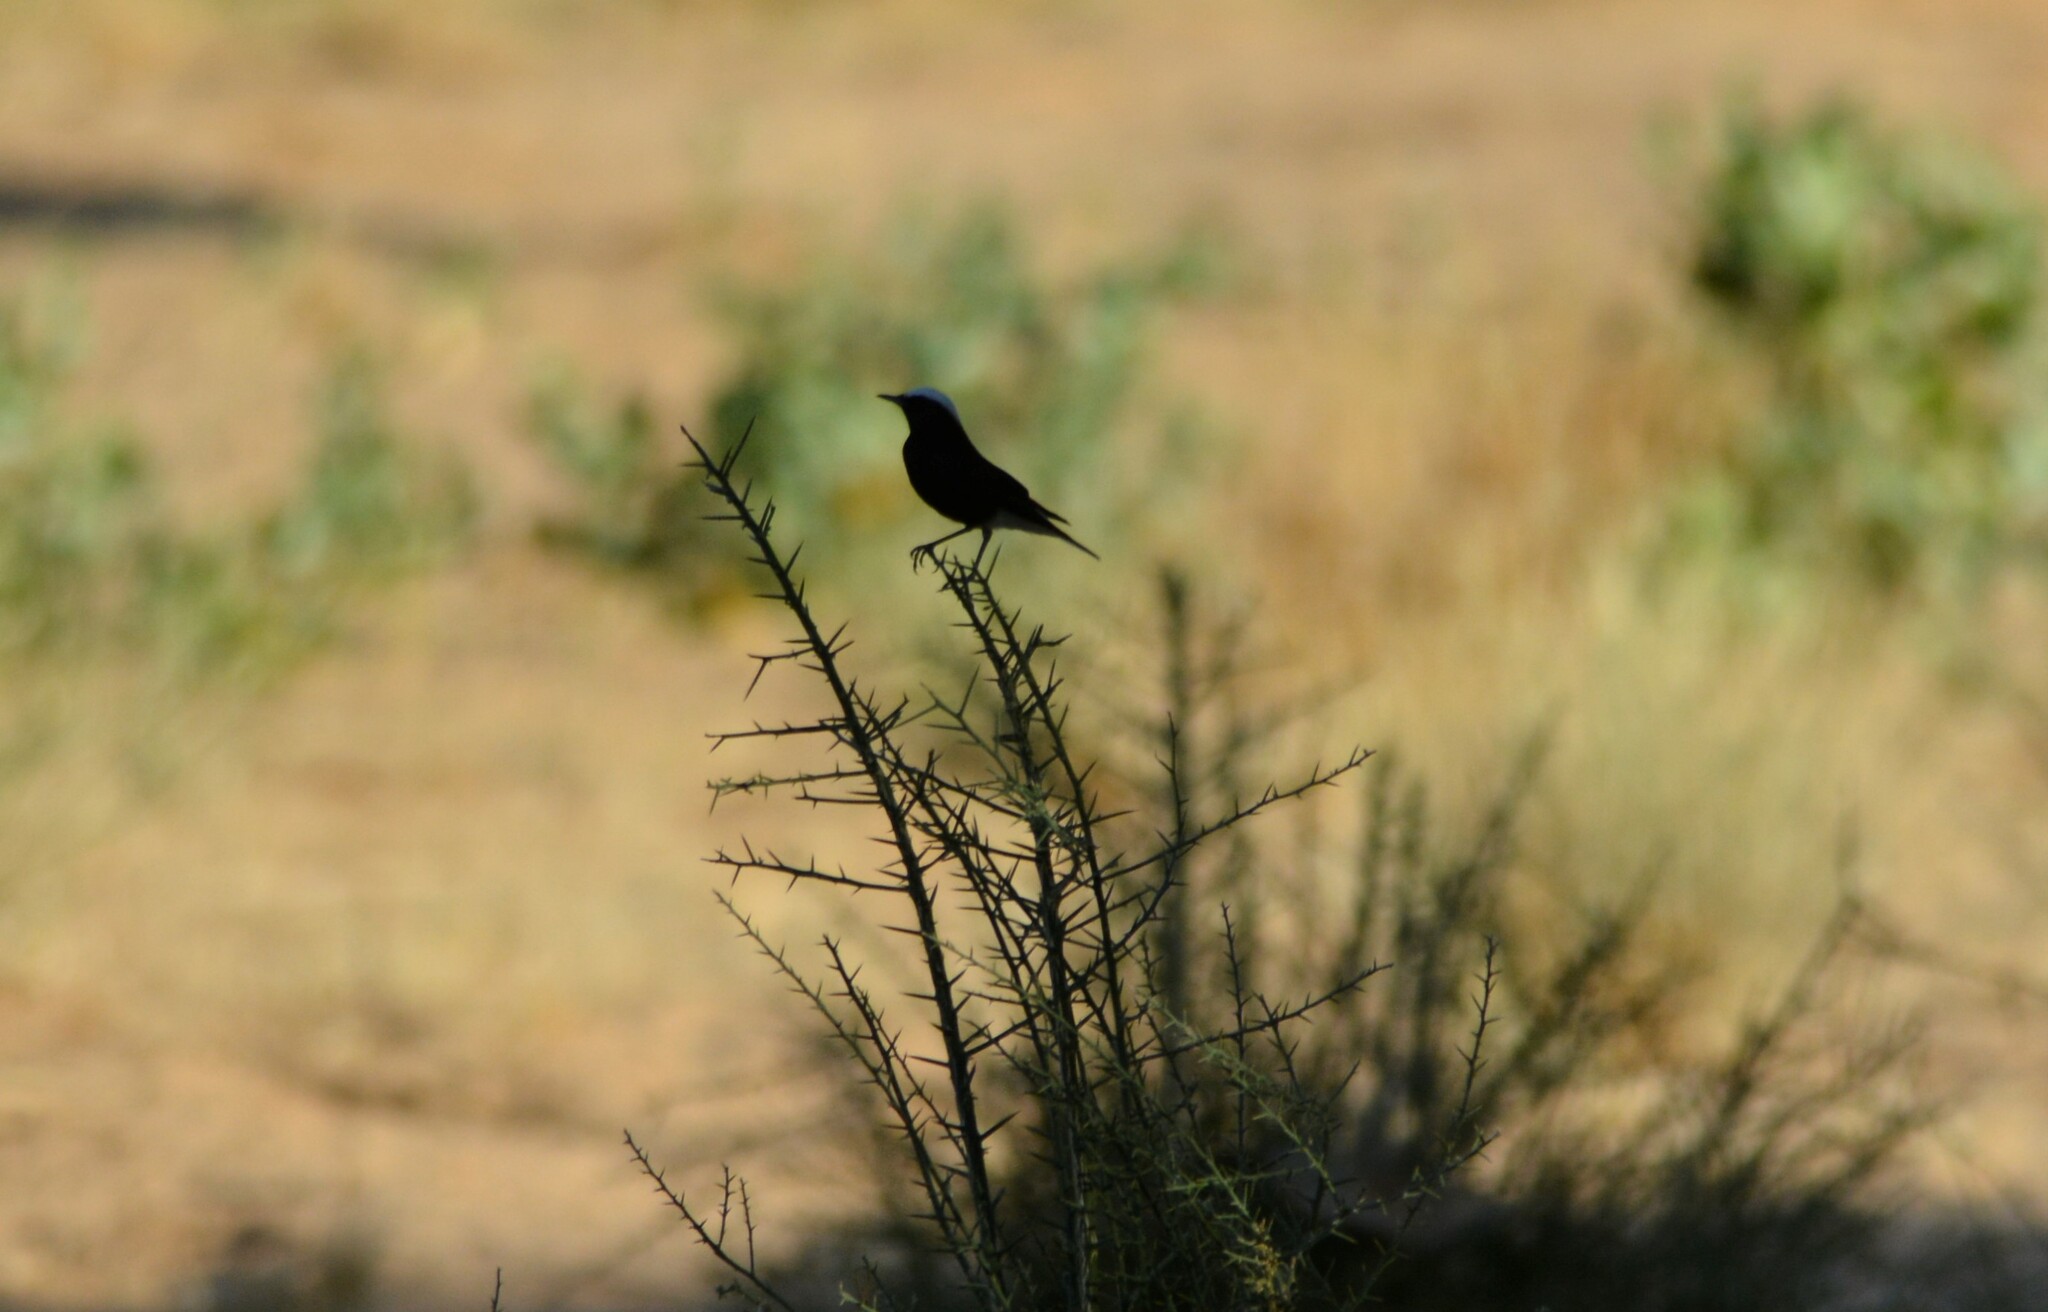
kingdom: Animalia
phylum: Chordata
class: Aves
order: Passeriformes
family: Muscicapidae
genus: Oenanthe
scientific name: Oenanthe leucopyga
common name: White-crowned wheatear
